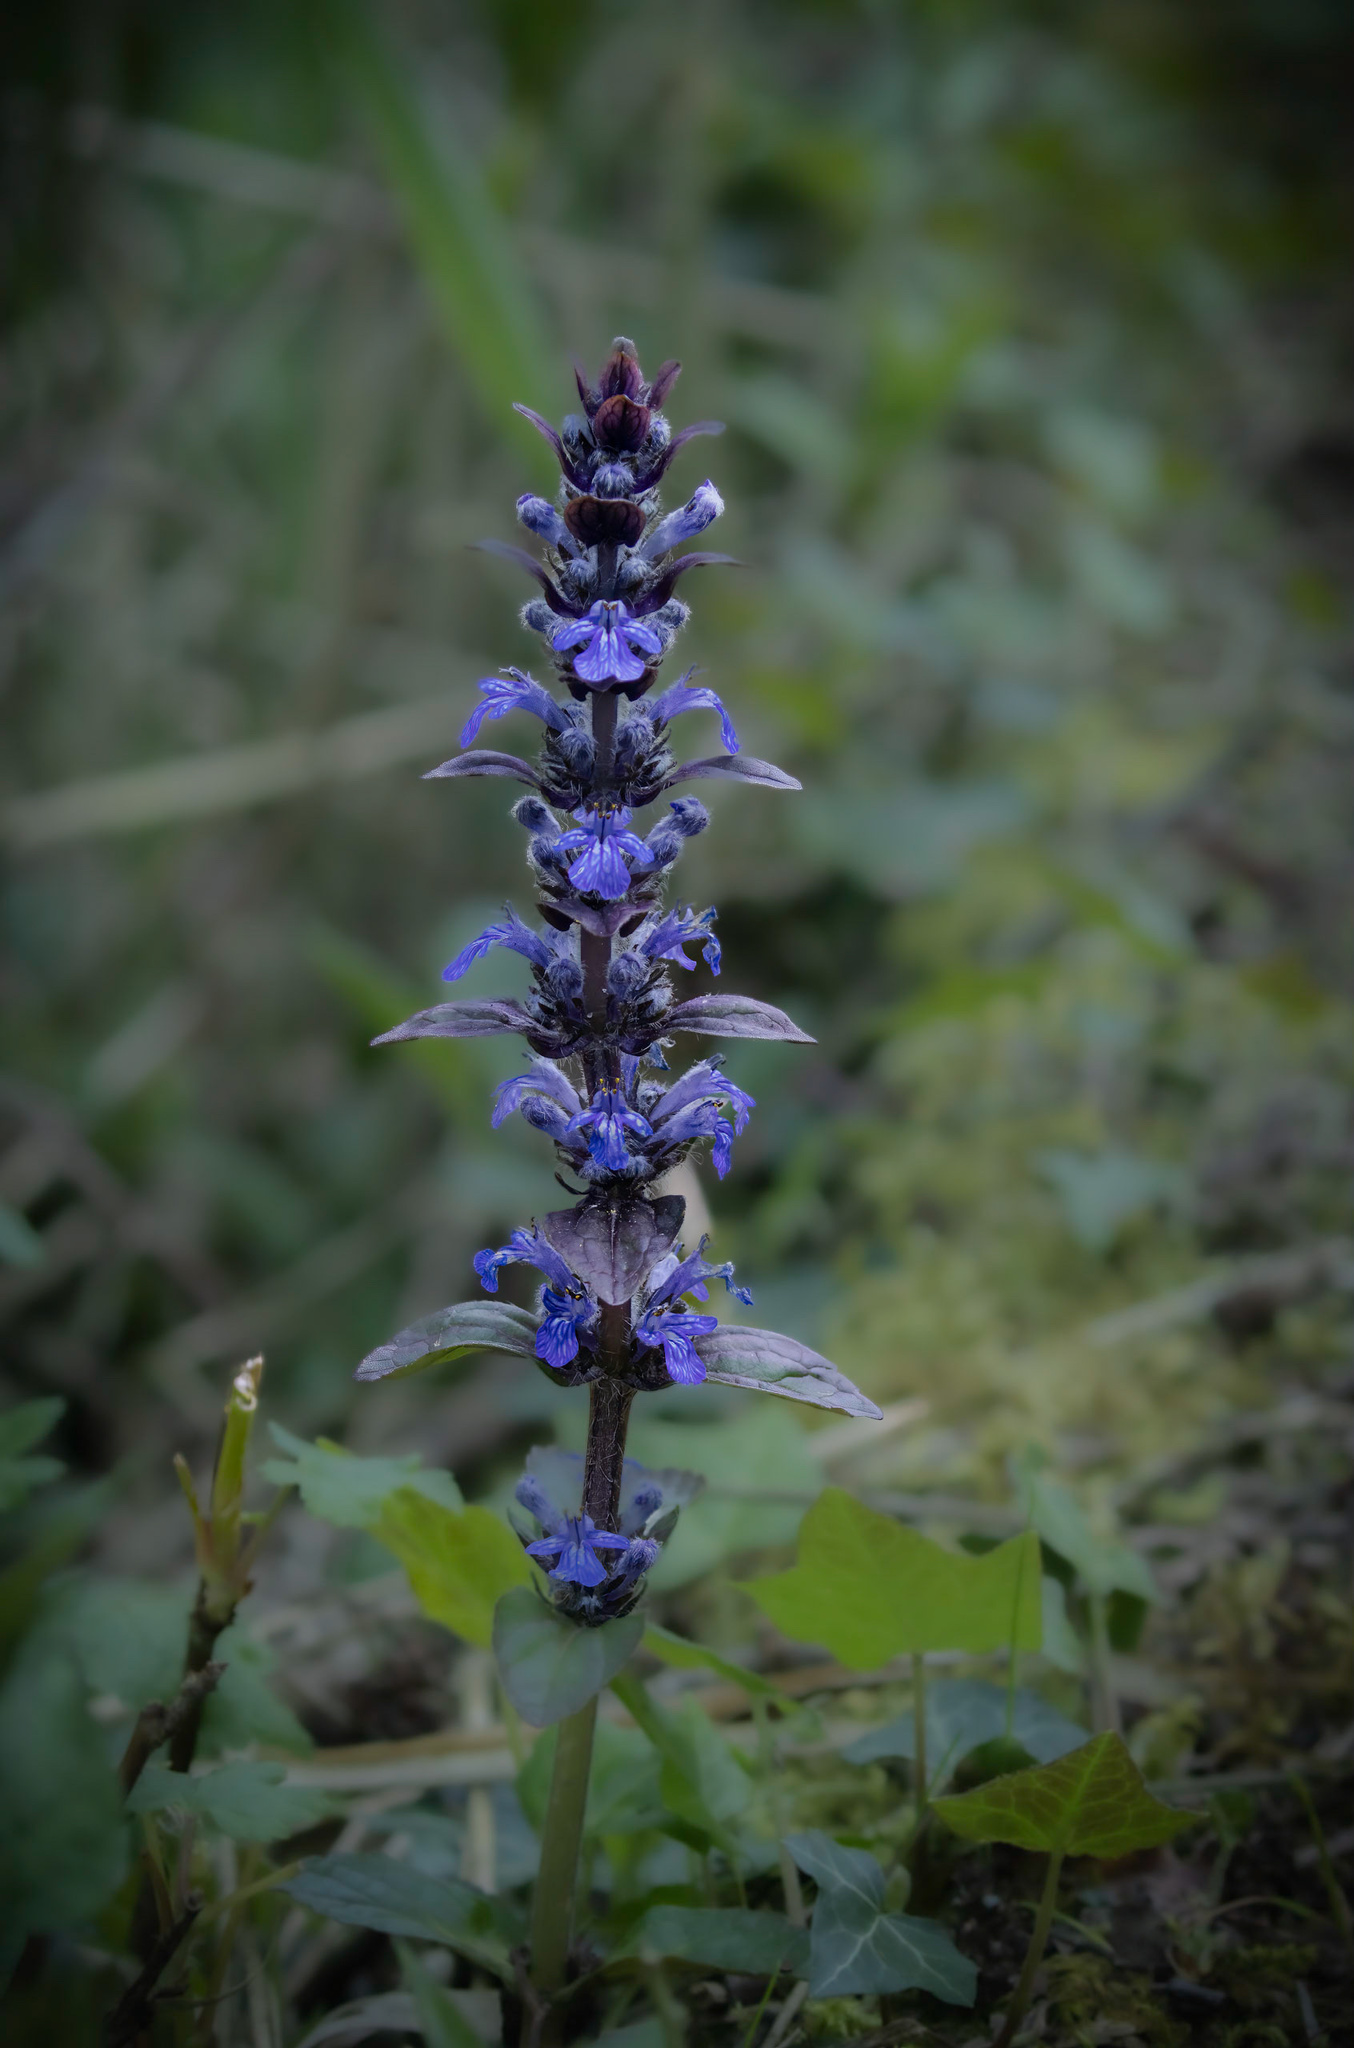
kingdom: Plantae
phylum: Tracheophyta
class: Magnoliopsida
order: Lamiales
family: Lamiaceae
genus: Ajuga
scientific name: Ajuga reptans
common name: Bugle
